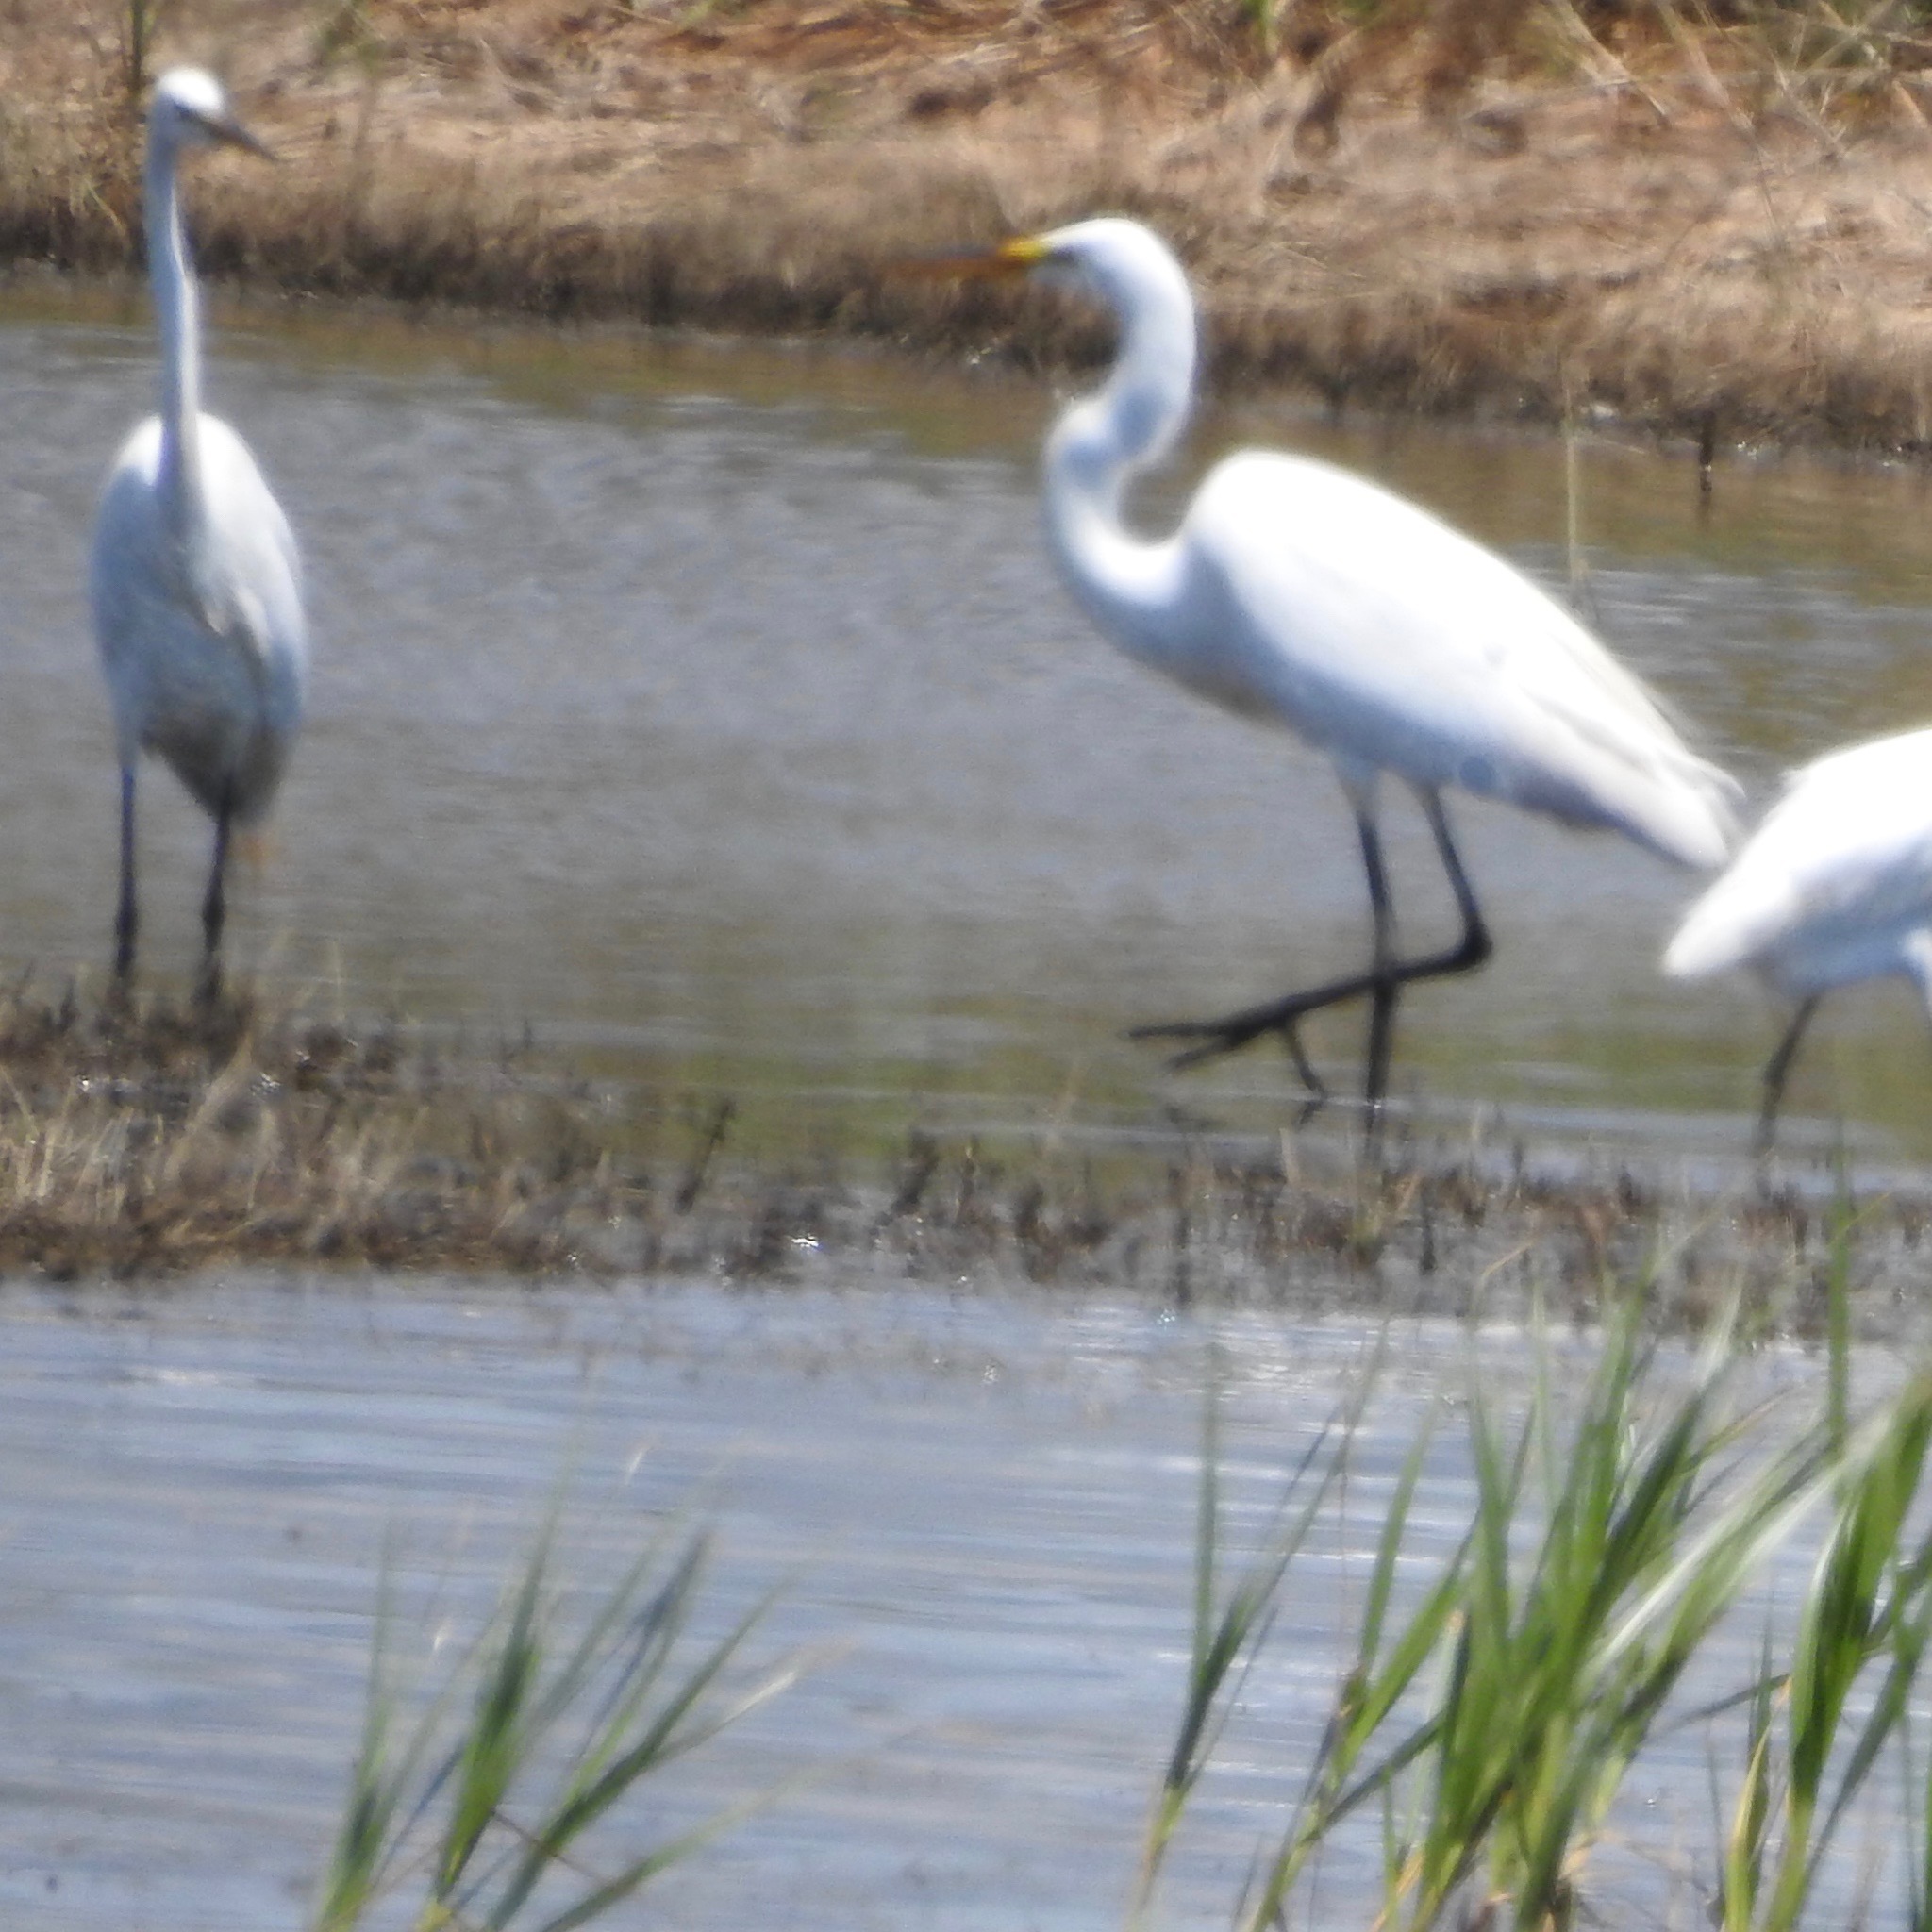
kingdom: Animalia
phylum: Chordata
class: Aves
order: Pelecaniformes
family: Ardeidae
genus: Ardea
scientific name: Ardea alba
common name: Great egret
